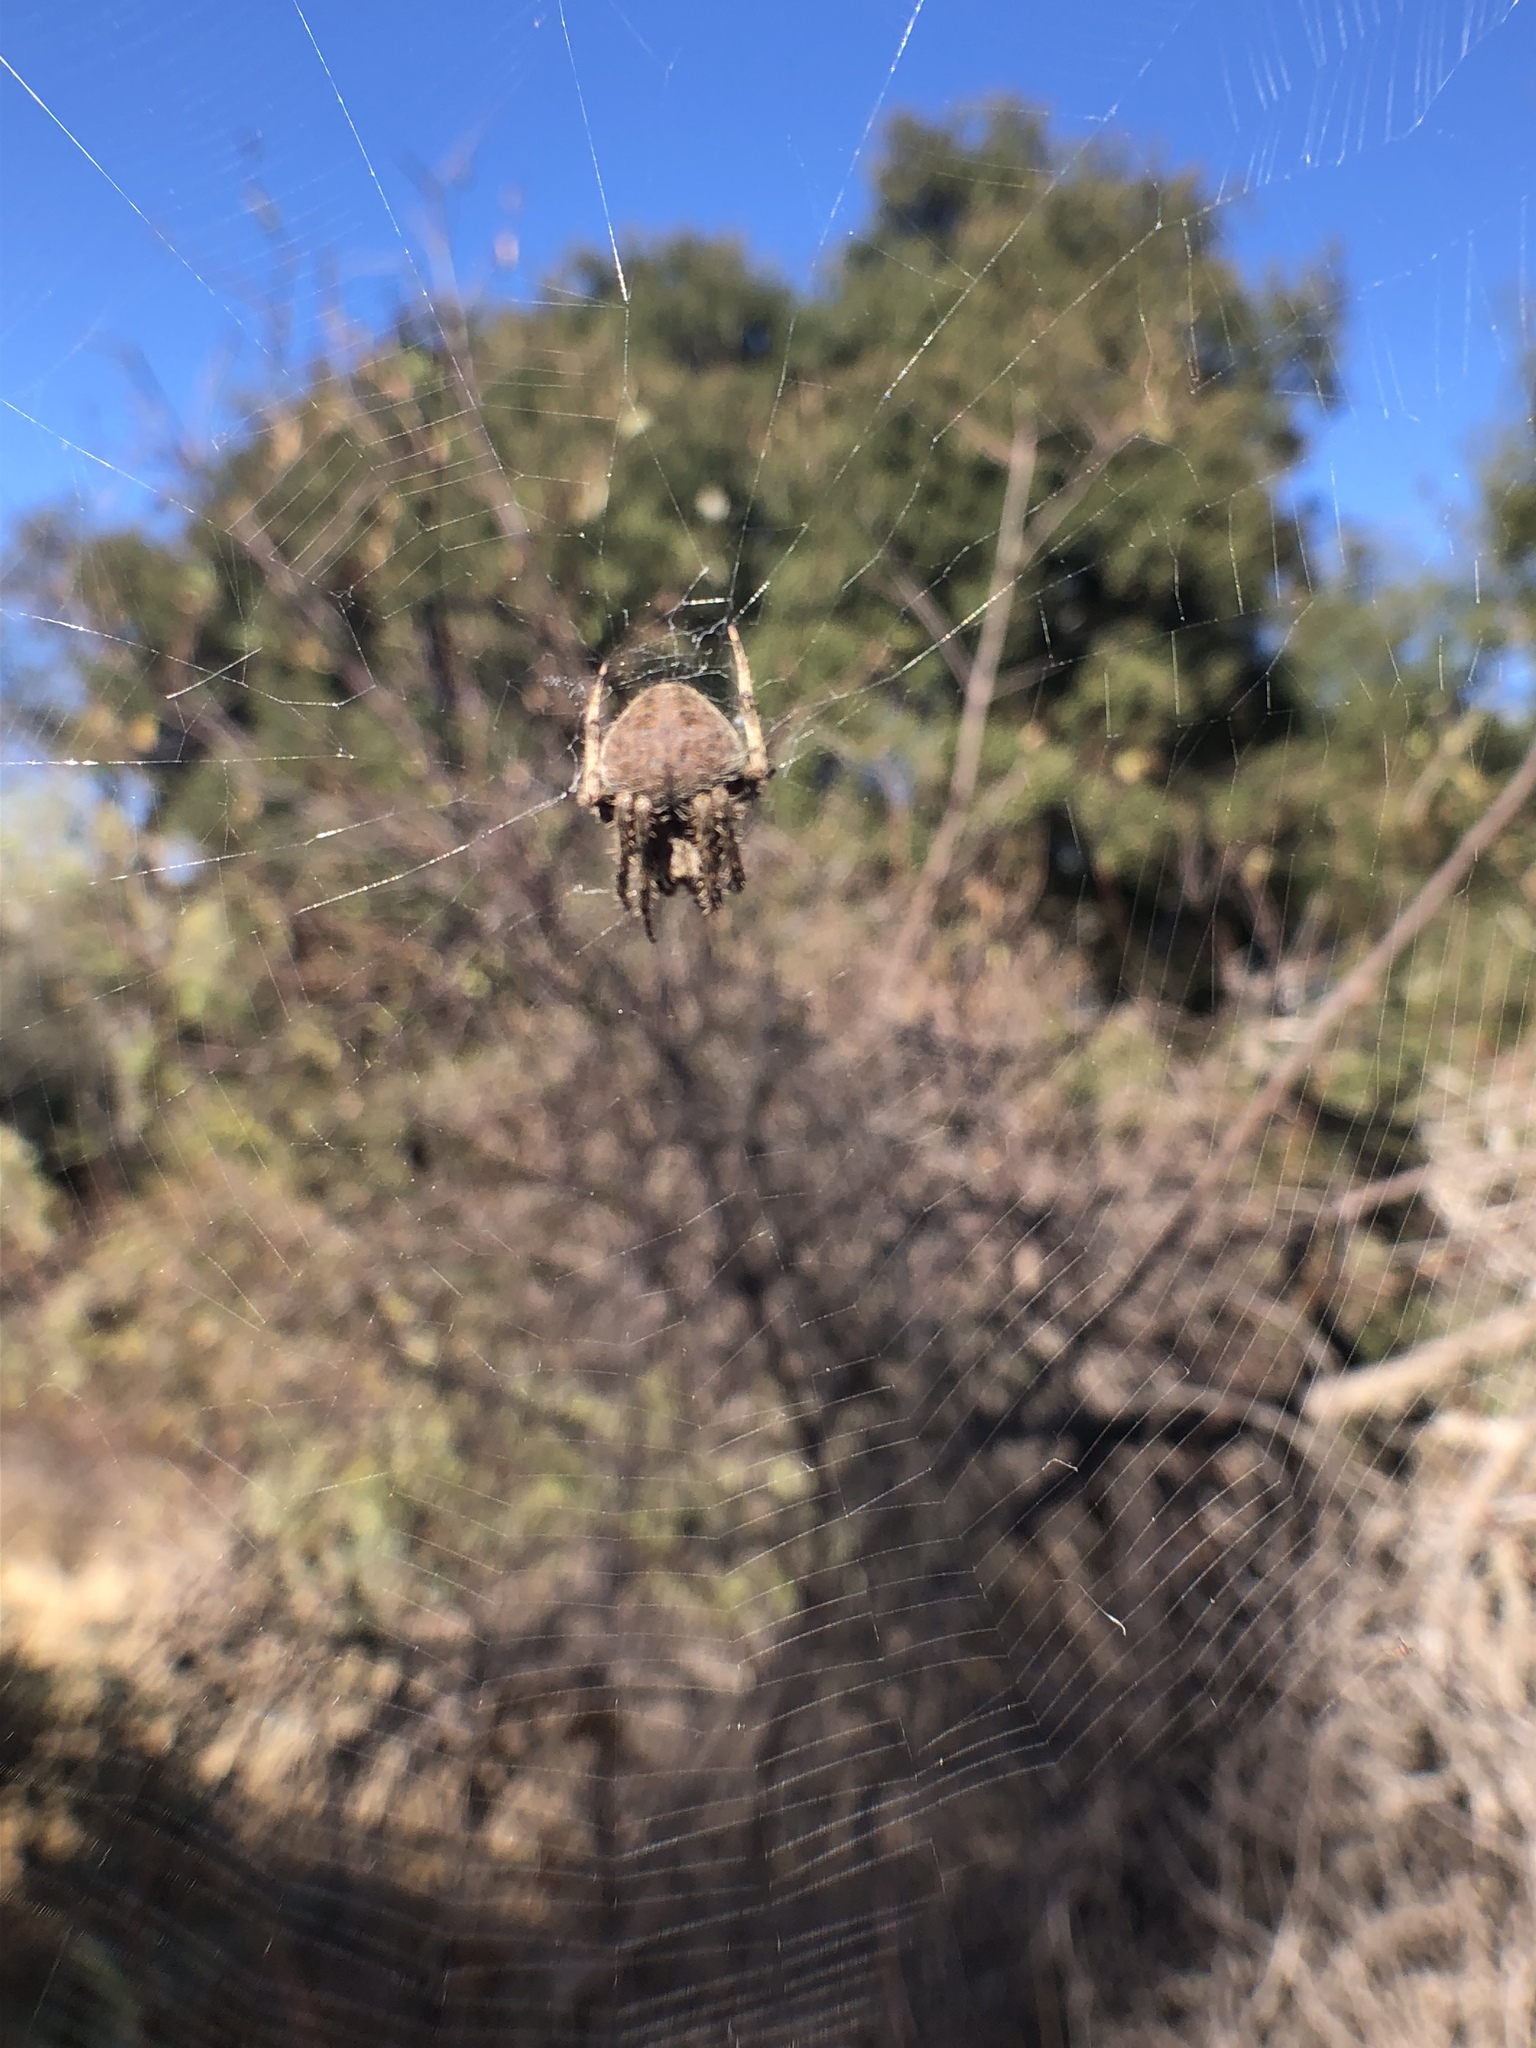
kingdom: Animalia
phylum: Arthropoda
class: Arachnida
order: Araneae
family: Araneidae
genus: Neoscona
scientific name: Neoscona crucifera
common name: Spotted orbweaver
